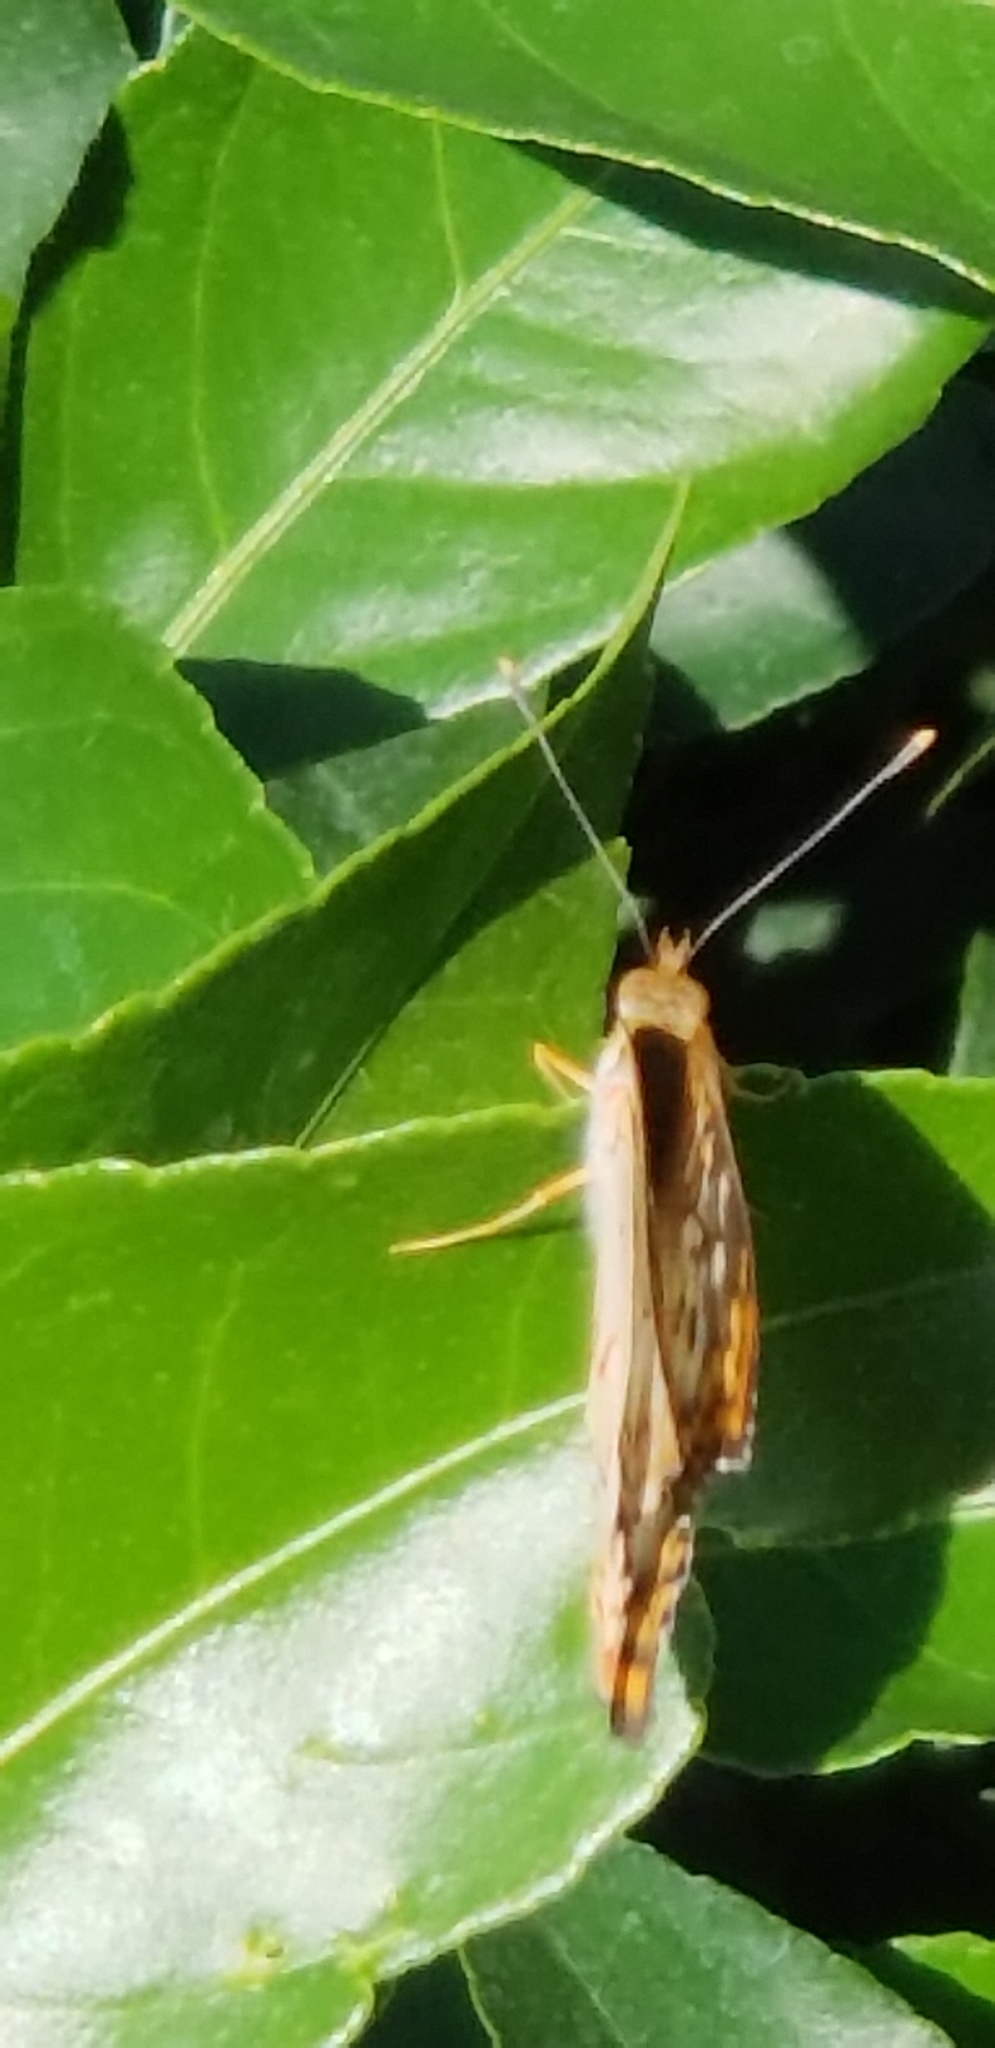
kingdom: Animalia
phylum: Arthropoda
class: Insecta
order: Lepidoptera
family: Nymphalidae
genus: Anartia
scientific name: Anartia jatrophae
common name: White peacock
